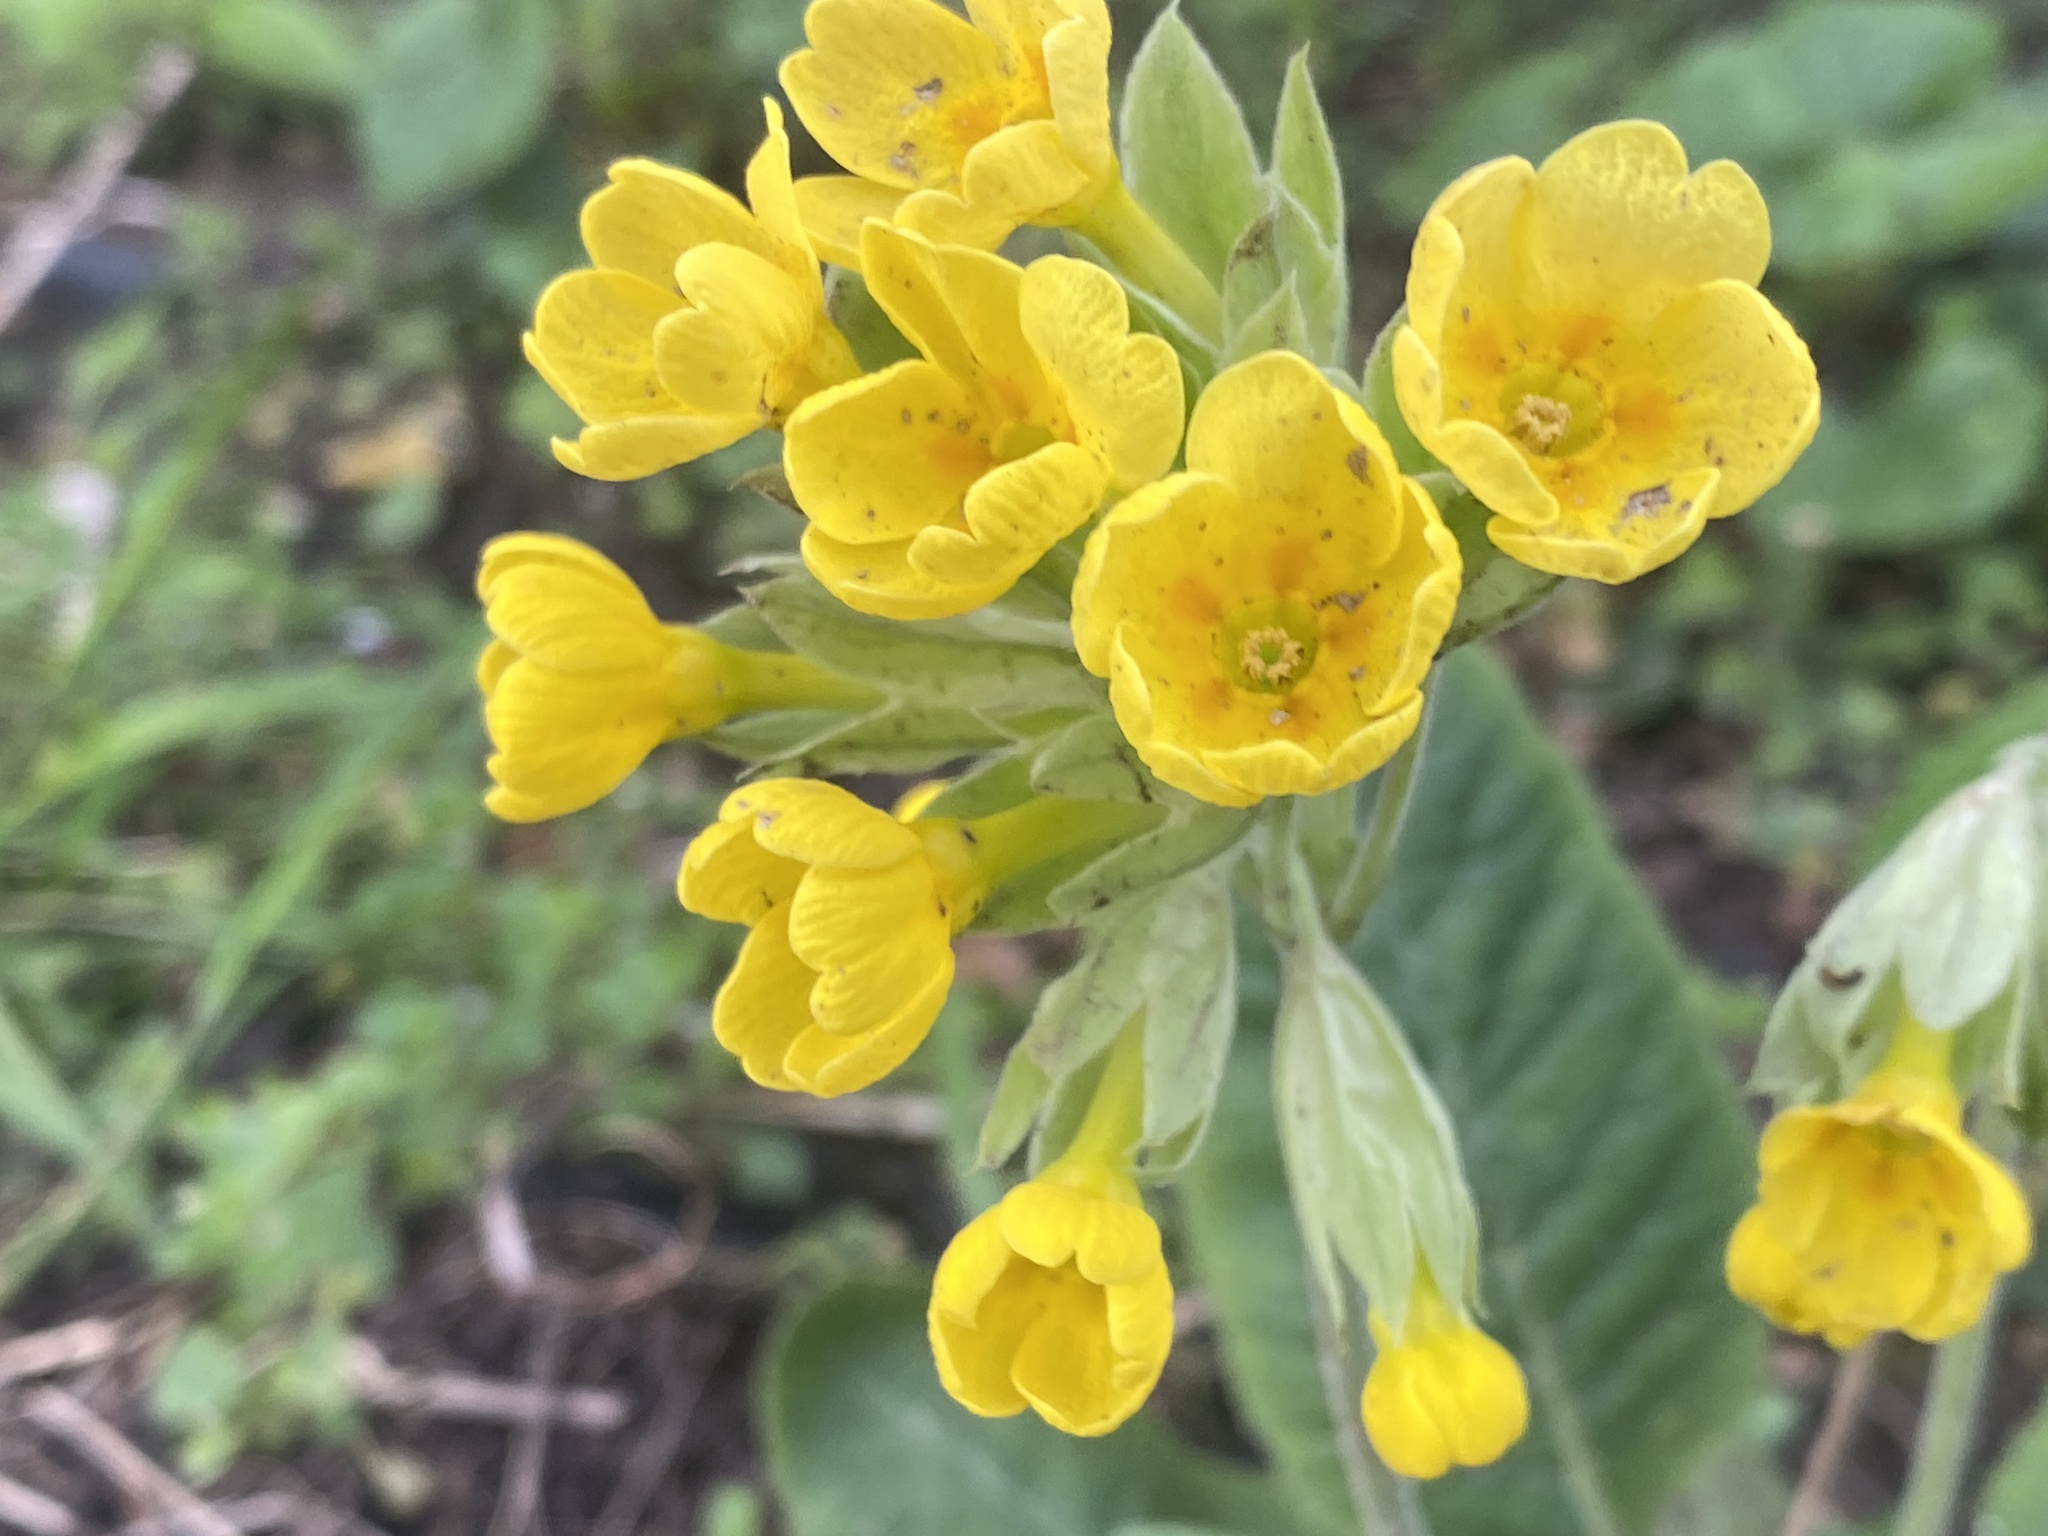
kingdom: Plantae
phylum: Tracheophyta
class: Magnoliopsida
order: Ericales
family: Primulaceae
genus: Primula
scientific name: Primula veris
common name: Cowslip
